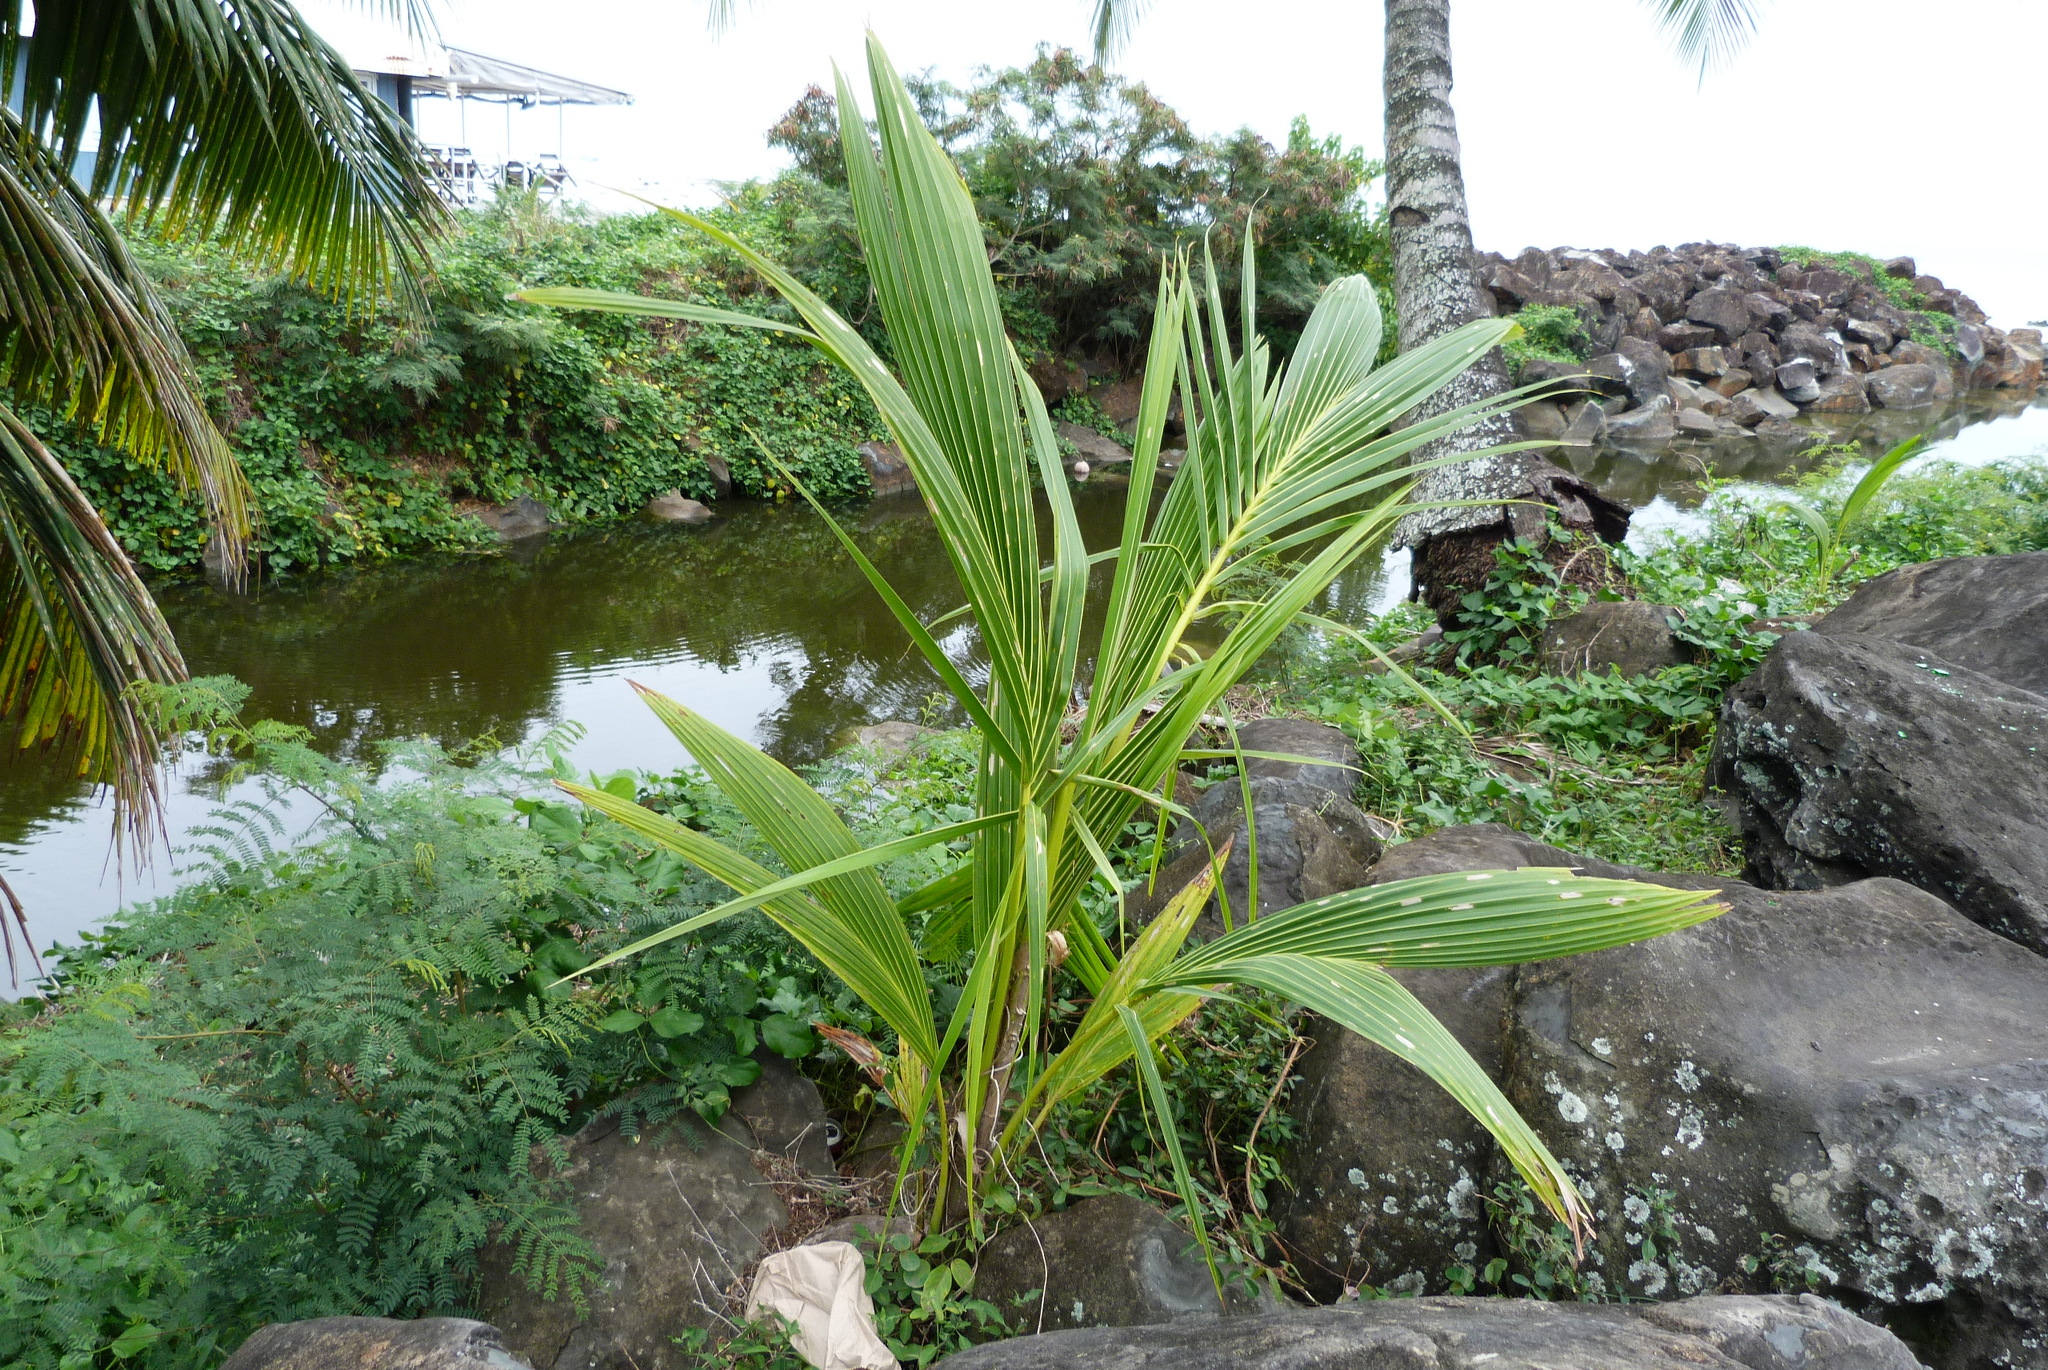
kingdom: Plantae
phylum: Tracheophyta
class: Liliopsida
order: Arecales
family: Arecaceae
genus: Cocos
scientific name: Cocos nucifera
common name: Coconut palm
